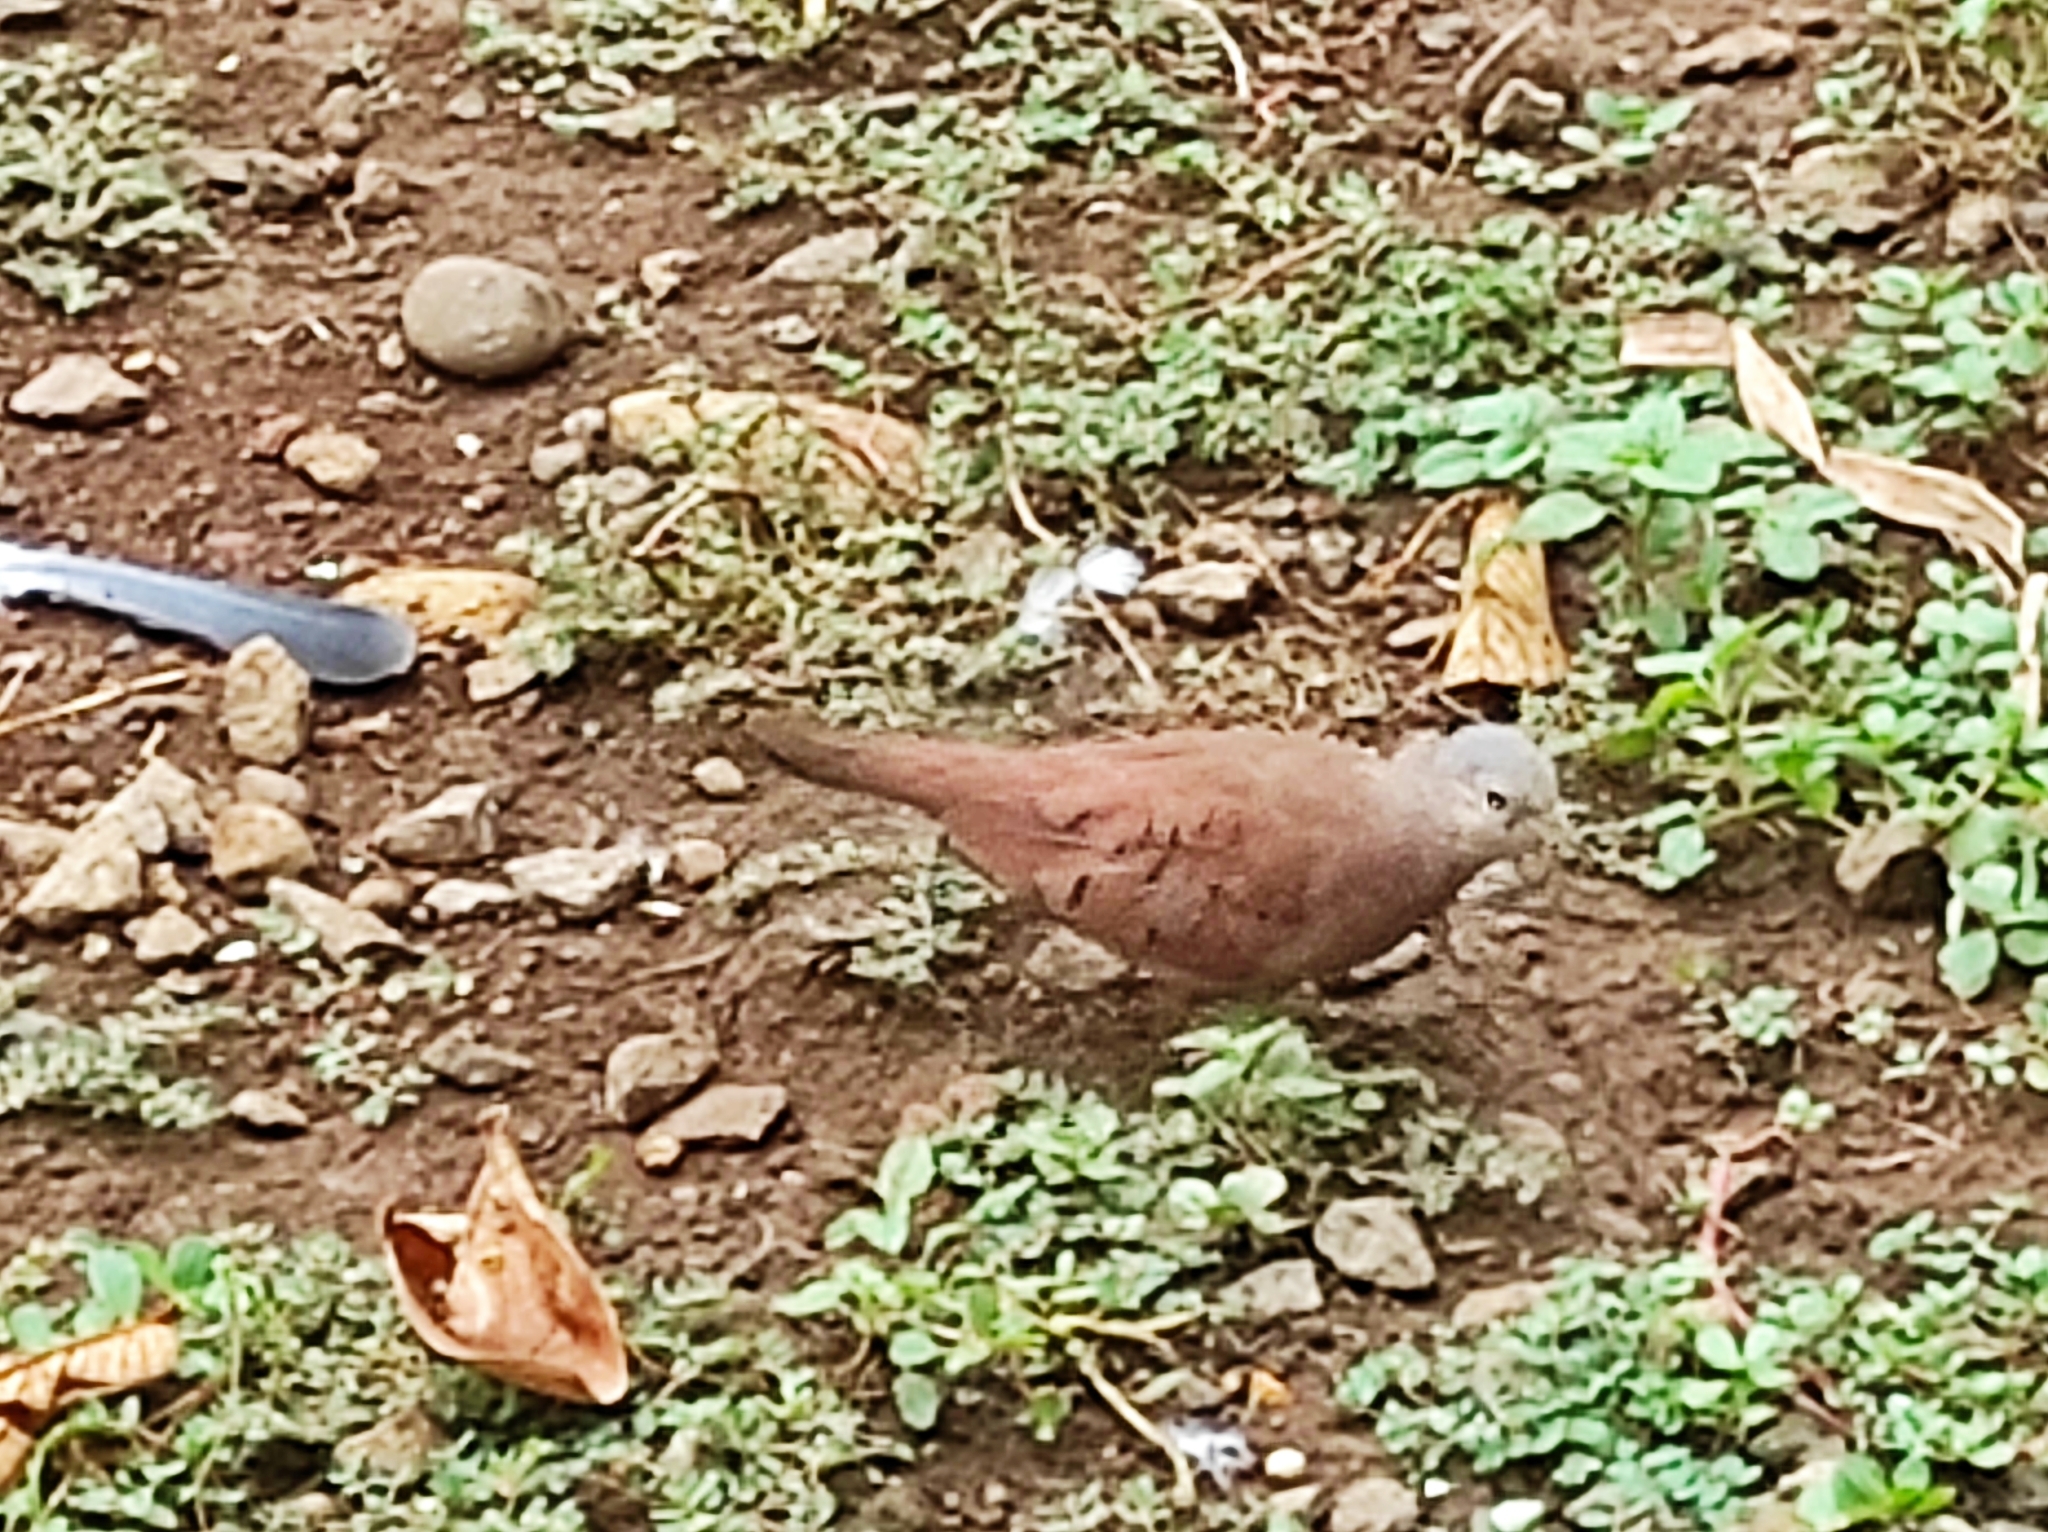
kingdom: Animalia
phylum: Chordata
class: Aves
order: Columbiformes
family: Columbidae
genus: Columbina
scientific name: Columbina talpacoti
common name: Ruddy ground dove
